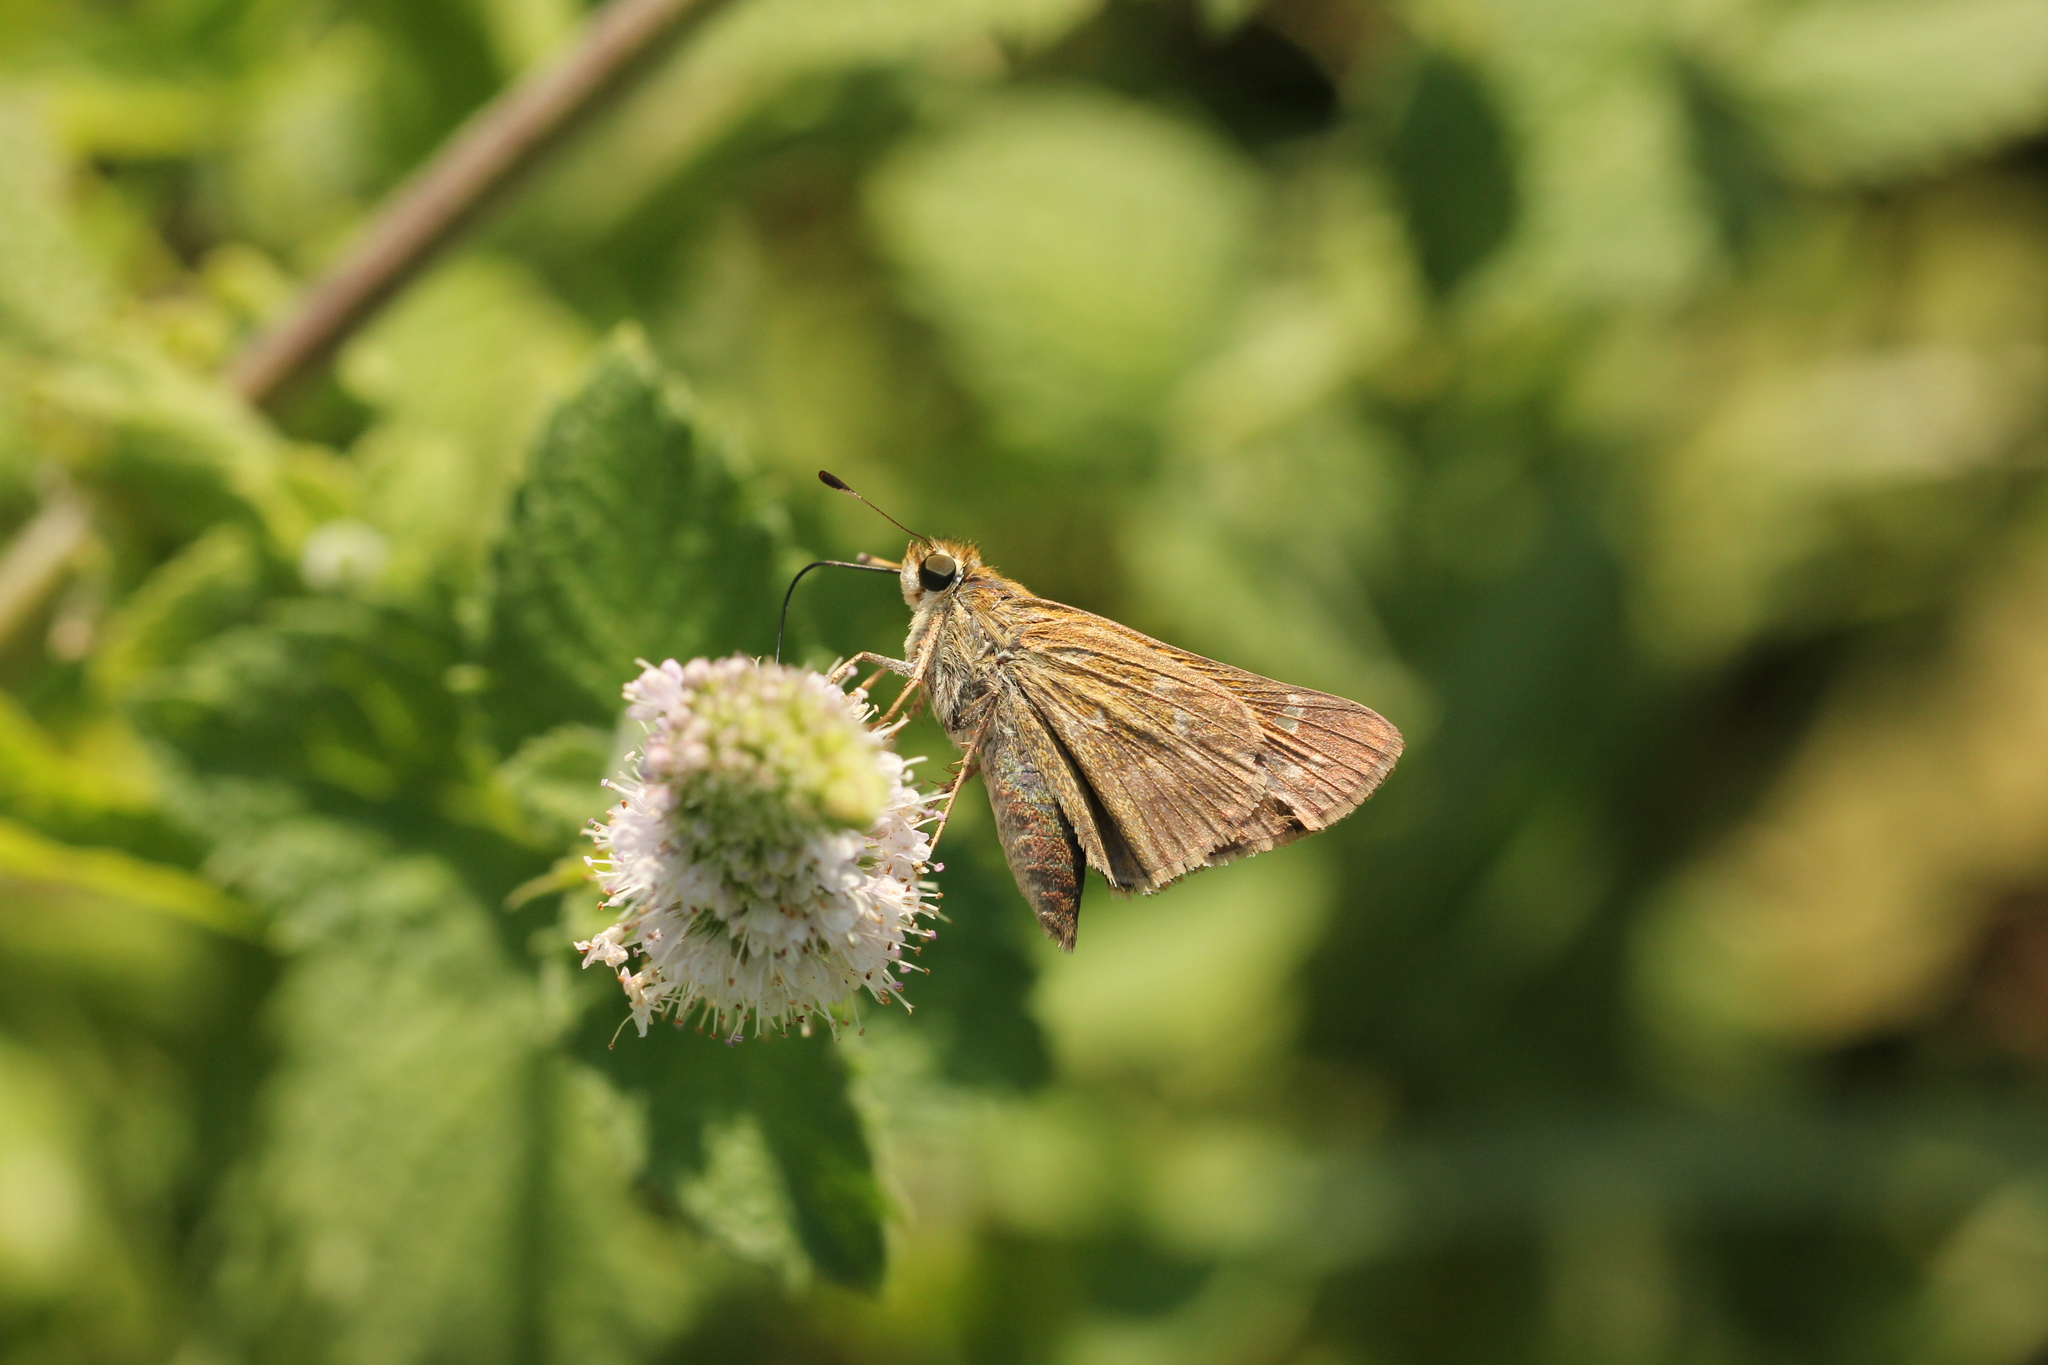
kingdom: Animalia
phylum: Arthropoda
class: Insecta
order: Lepidoptera
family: Hesperiidae
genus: Atalopedes
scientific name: Atalopedes
